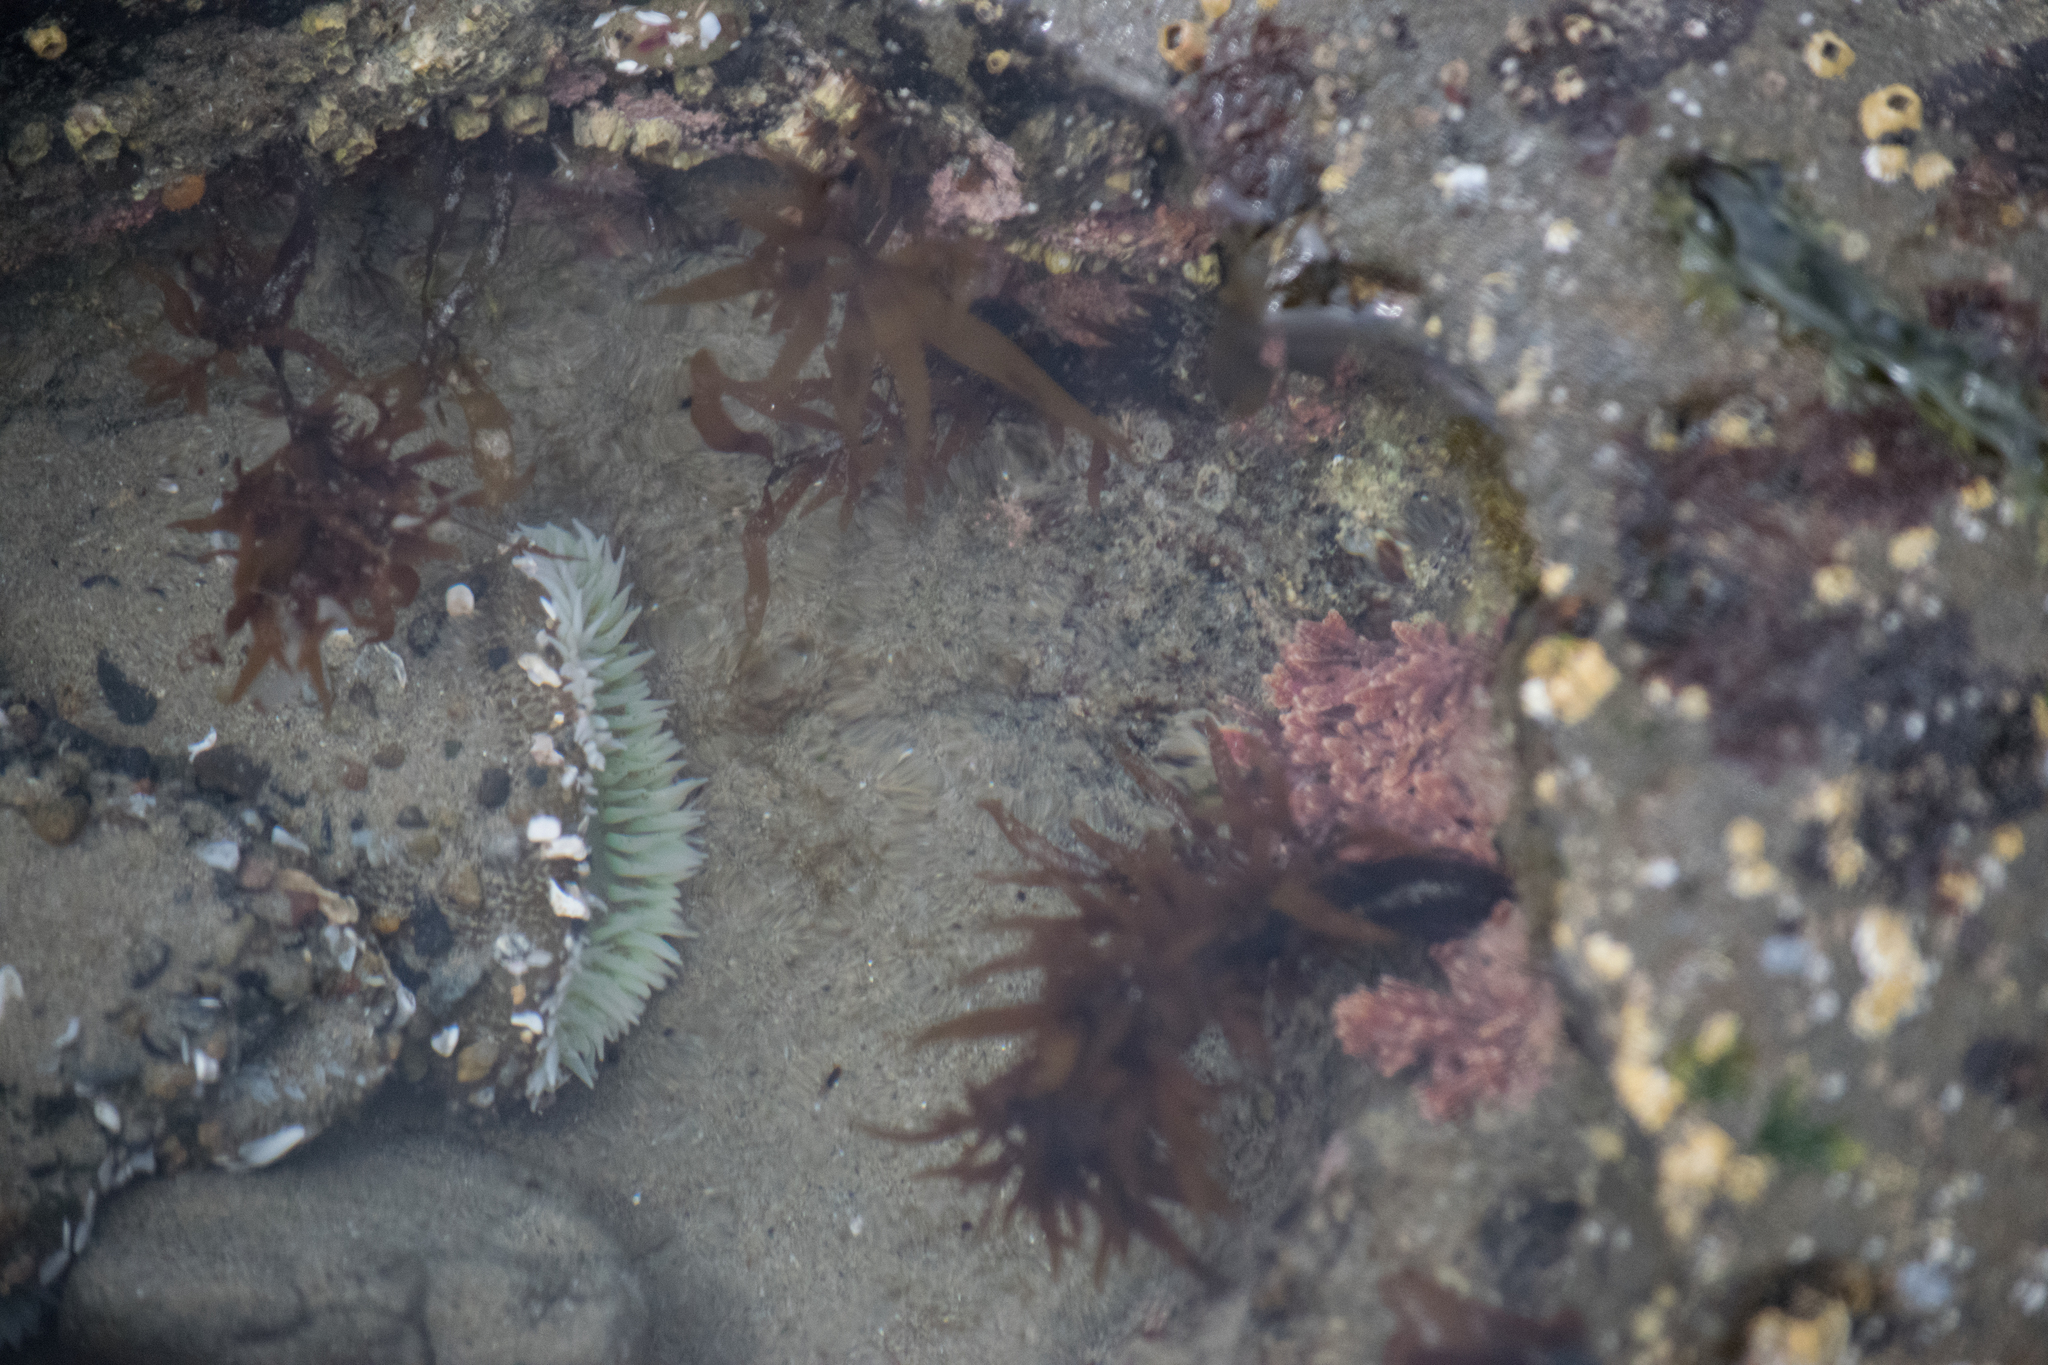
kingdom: Animalia
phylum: Cnidaria
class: Anthozoa
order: Actiniaria
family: Actiniidae
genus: Anthopleura
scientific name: Anthopleura xanthogrammica
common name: Giant green anemone
